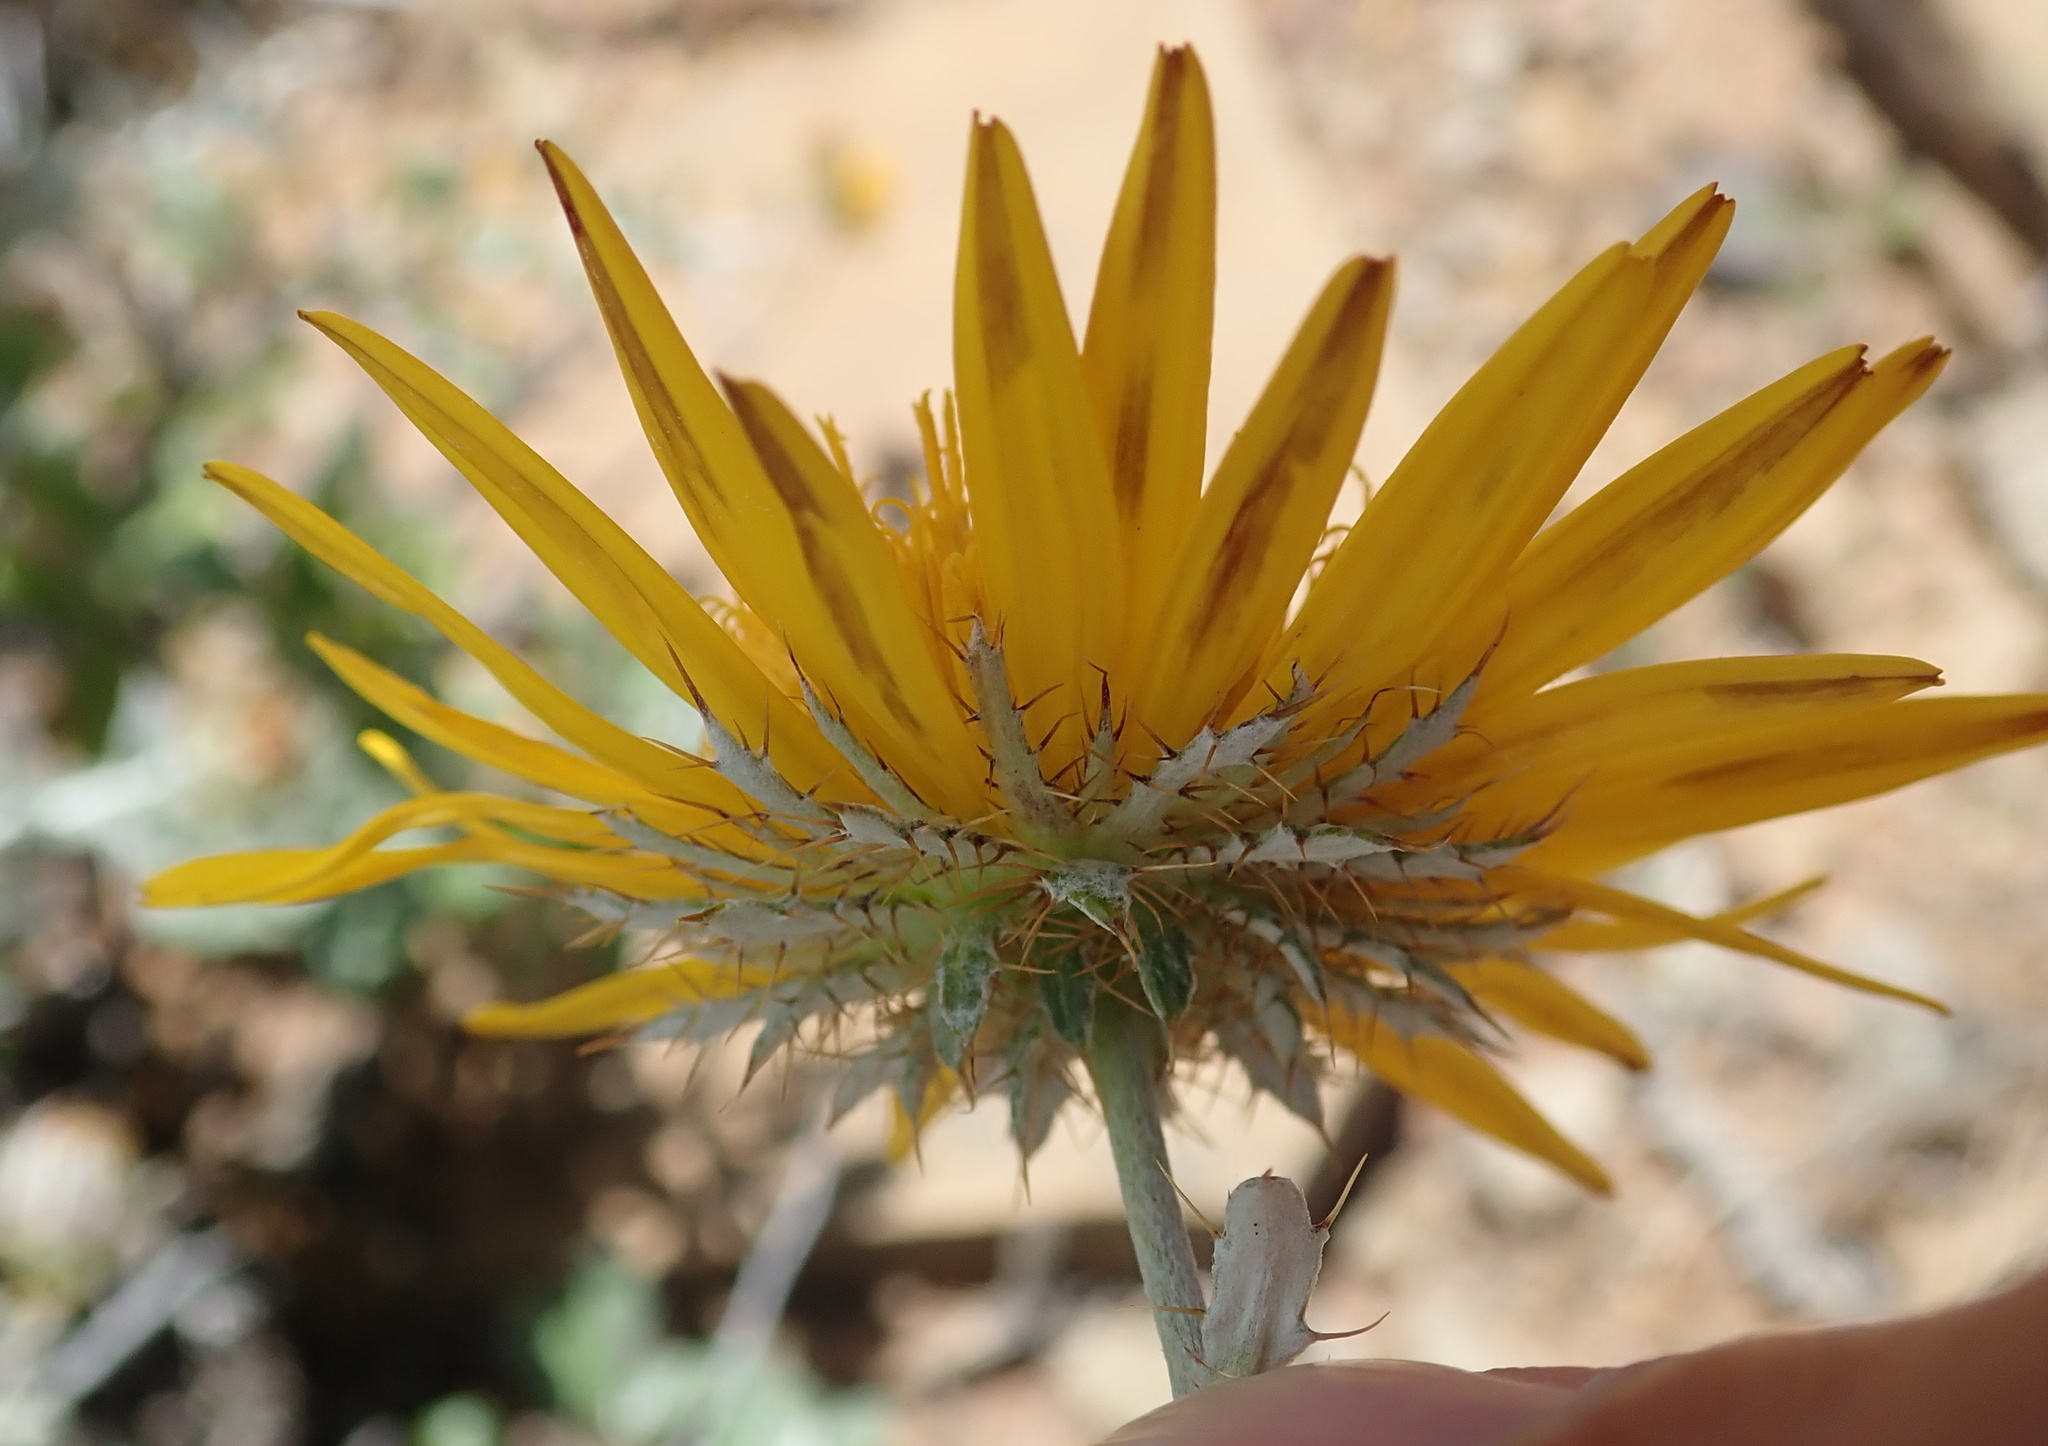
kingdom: Plantae
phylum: Tracheophyta
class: Magnoliopsida
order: Asterales
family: Asteraceae
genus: Berkheya
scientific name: Berkheya fruticosa
